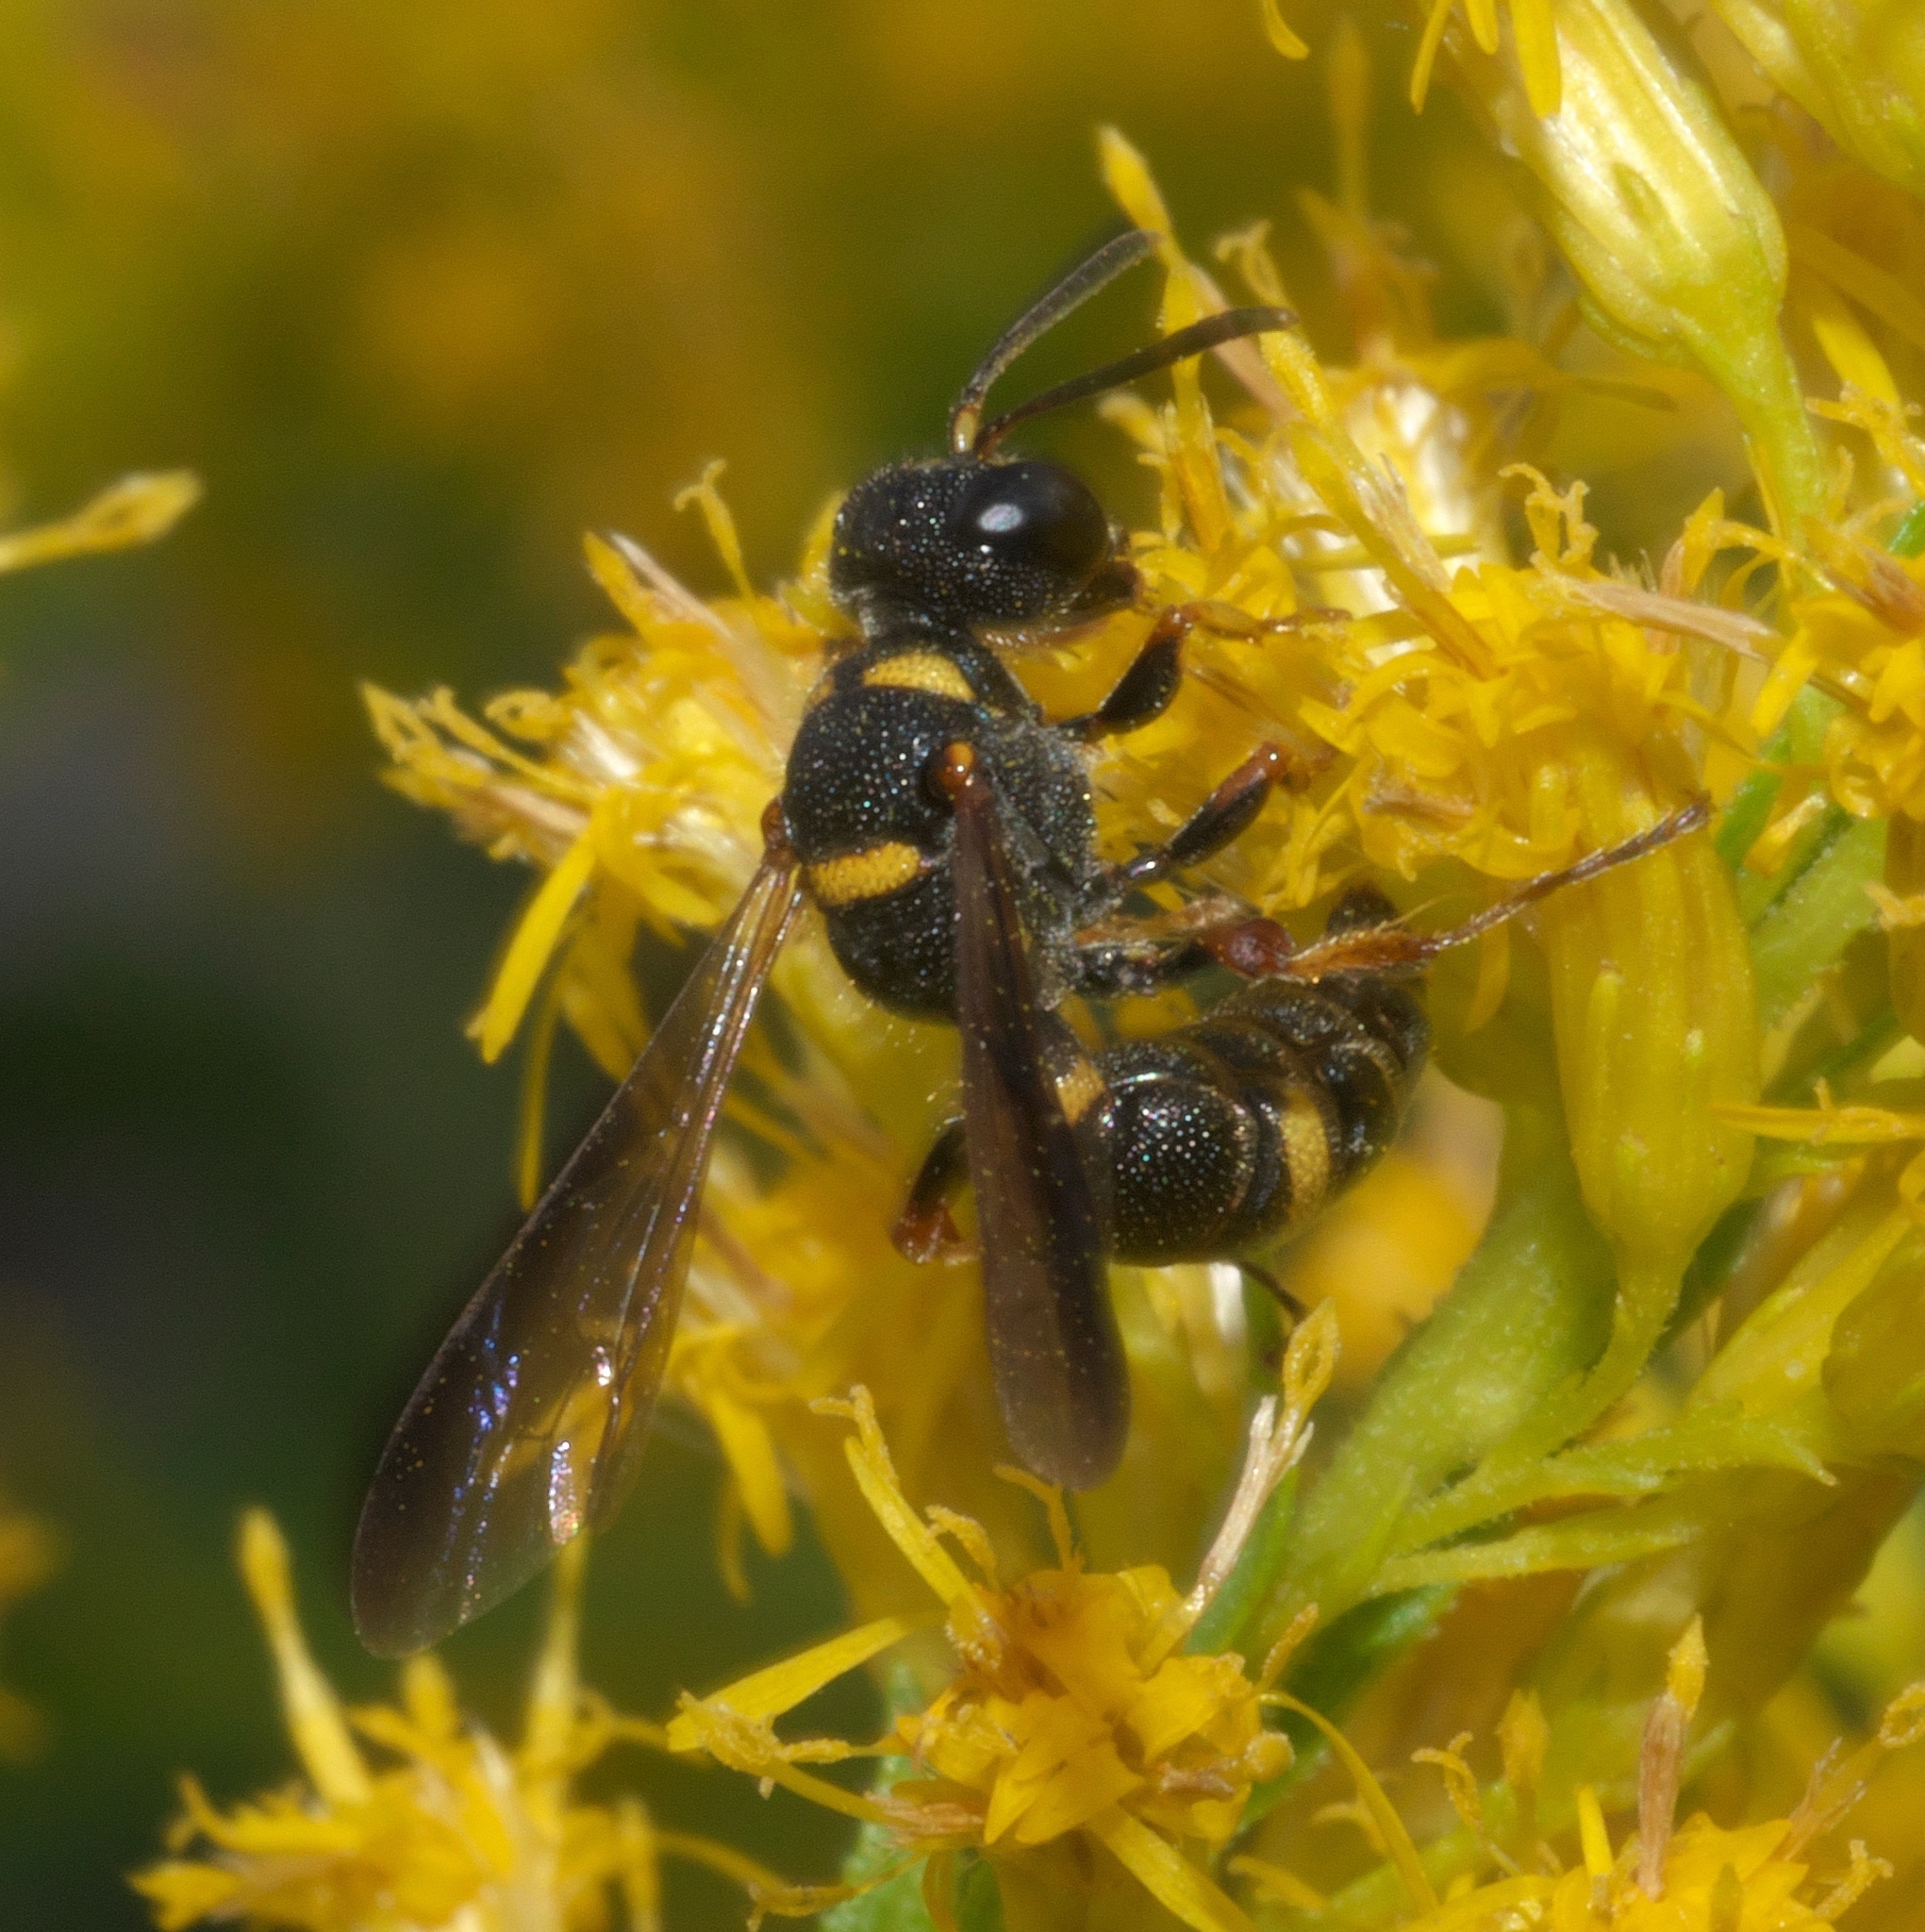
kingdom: Animalia
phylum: Arthropoda
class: Insecta
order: Hymenoptera
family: Crabronidae
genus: Cerceris
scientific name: Cerceris insolita
